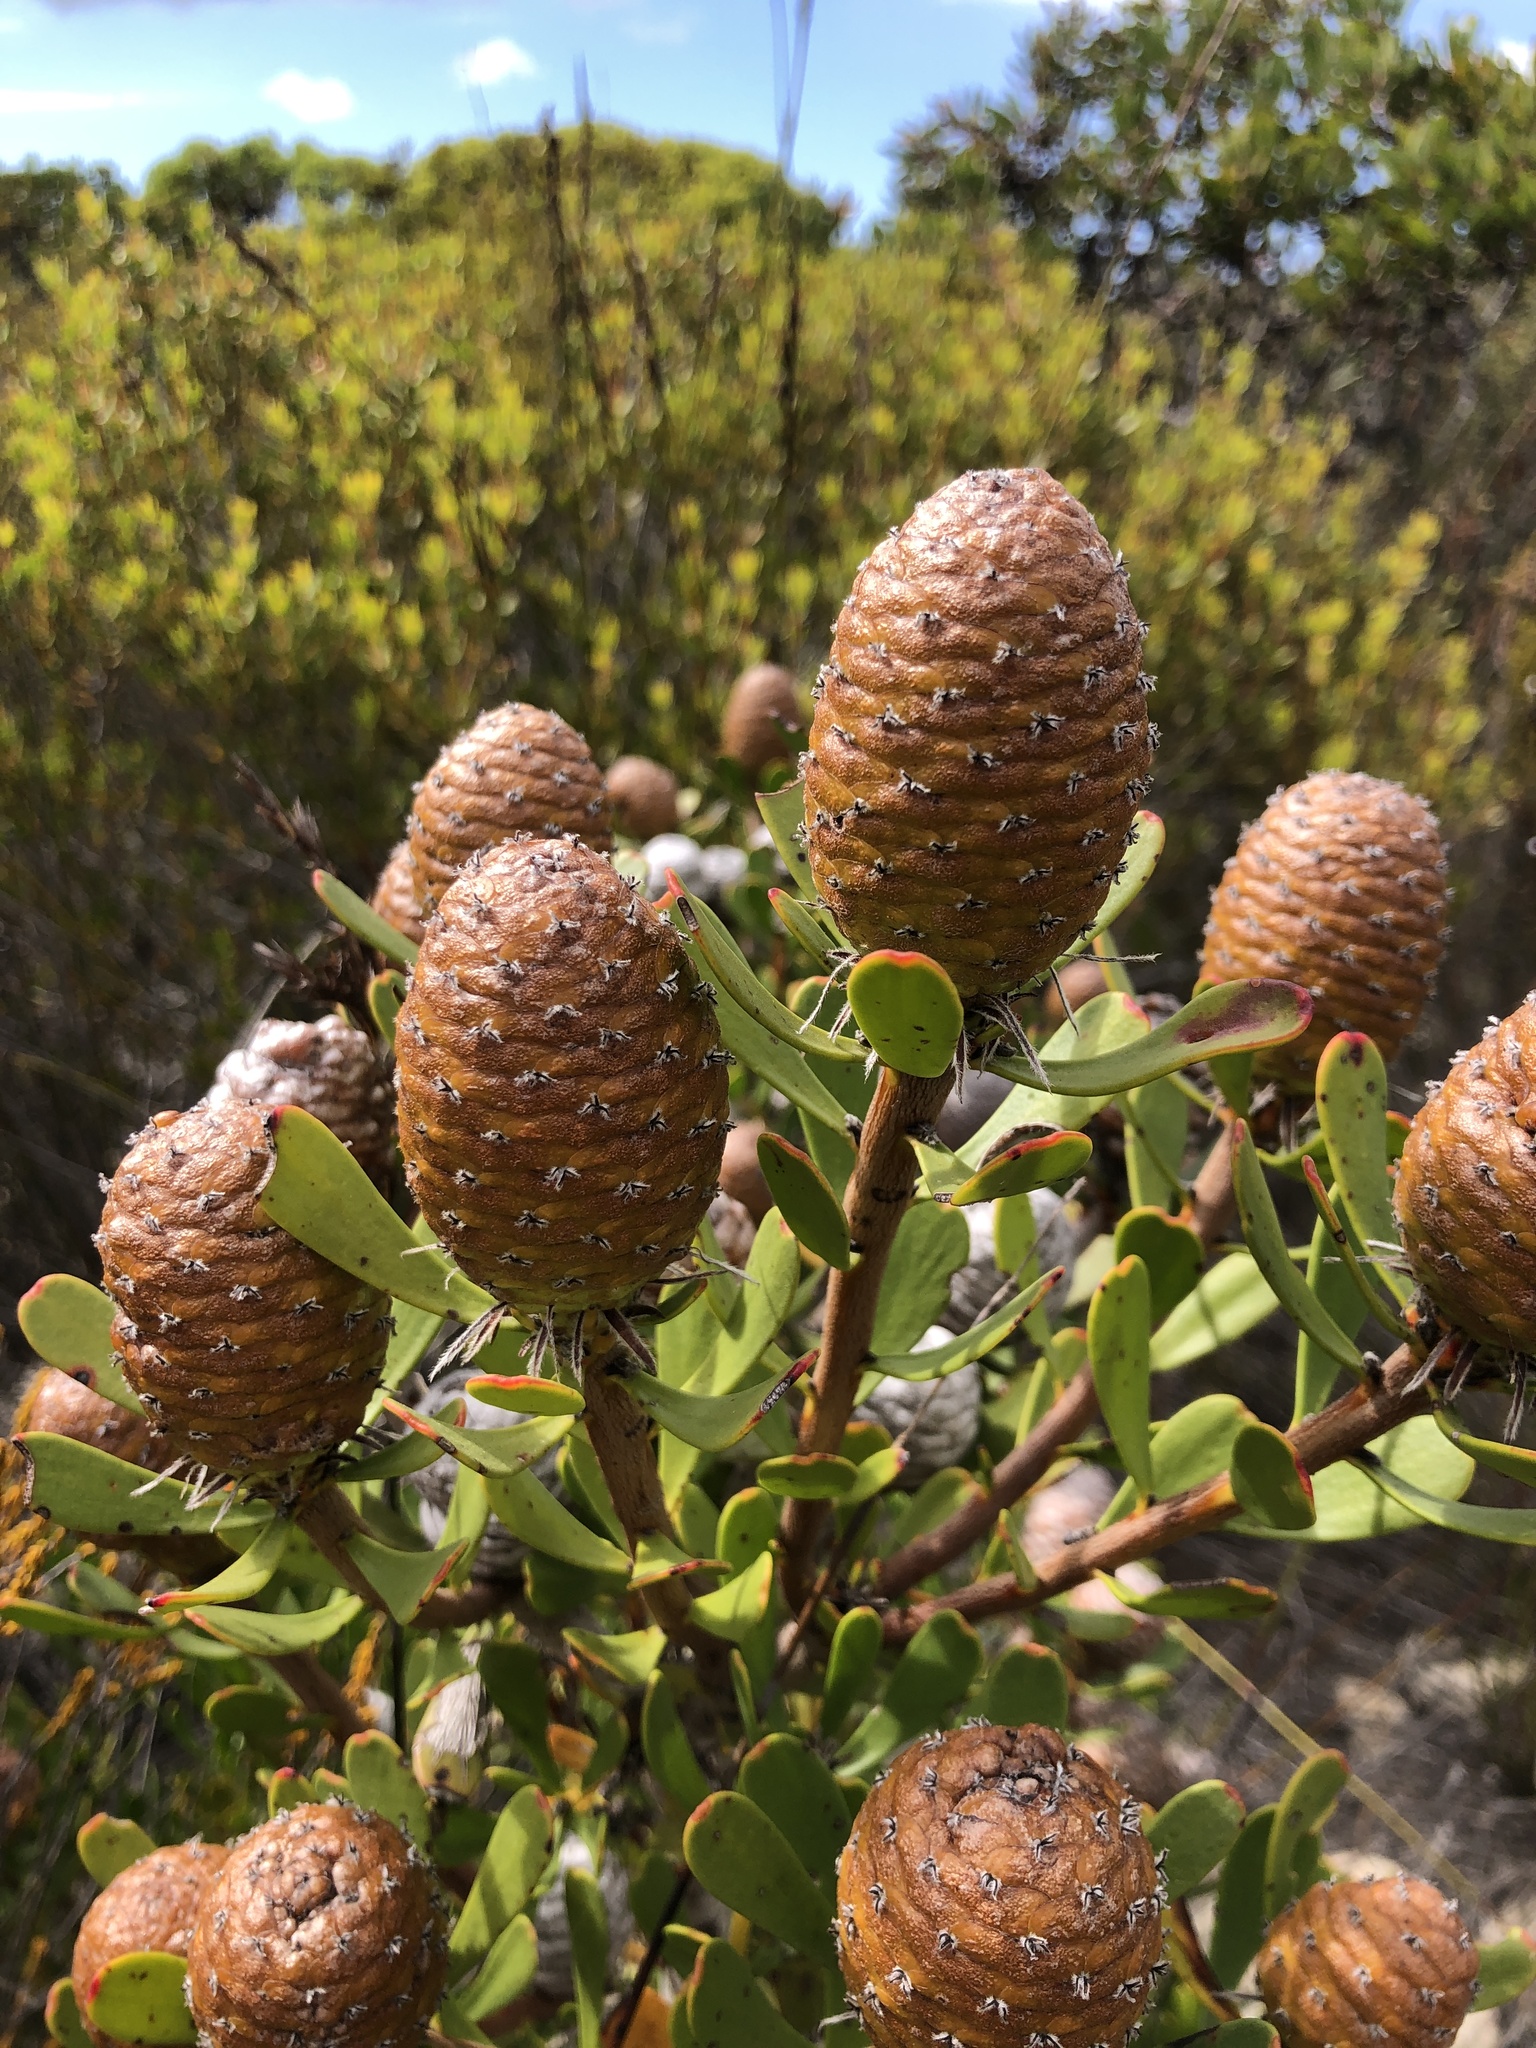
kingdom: Plantae
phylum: Tracheophyta
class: Magnoliopsida
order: Proteales
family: Proteaceae
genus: Leucadendron
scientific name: Leucadendron muirii
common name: Silver-ball conebush
